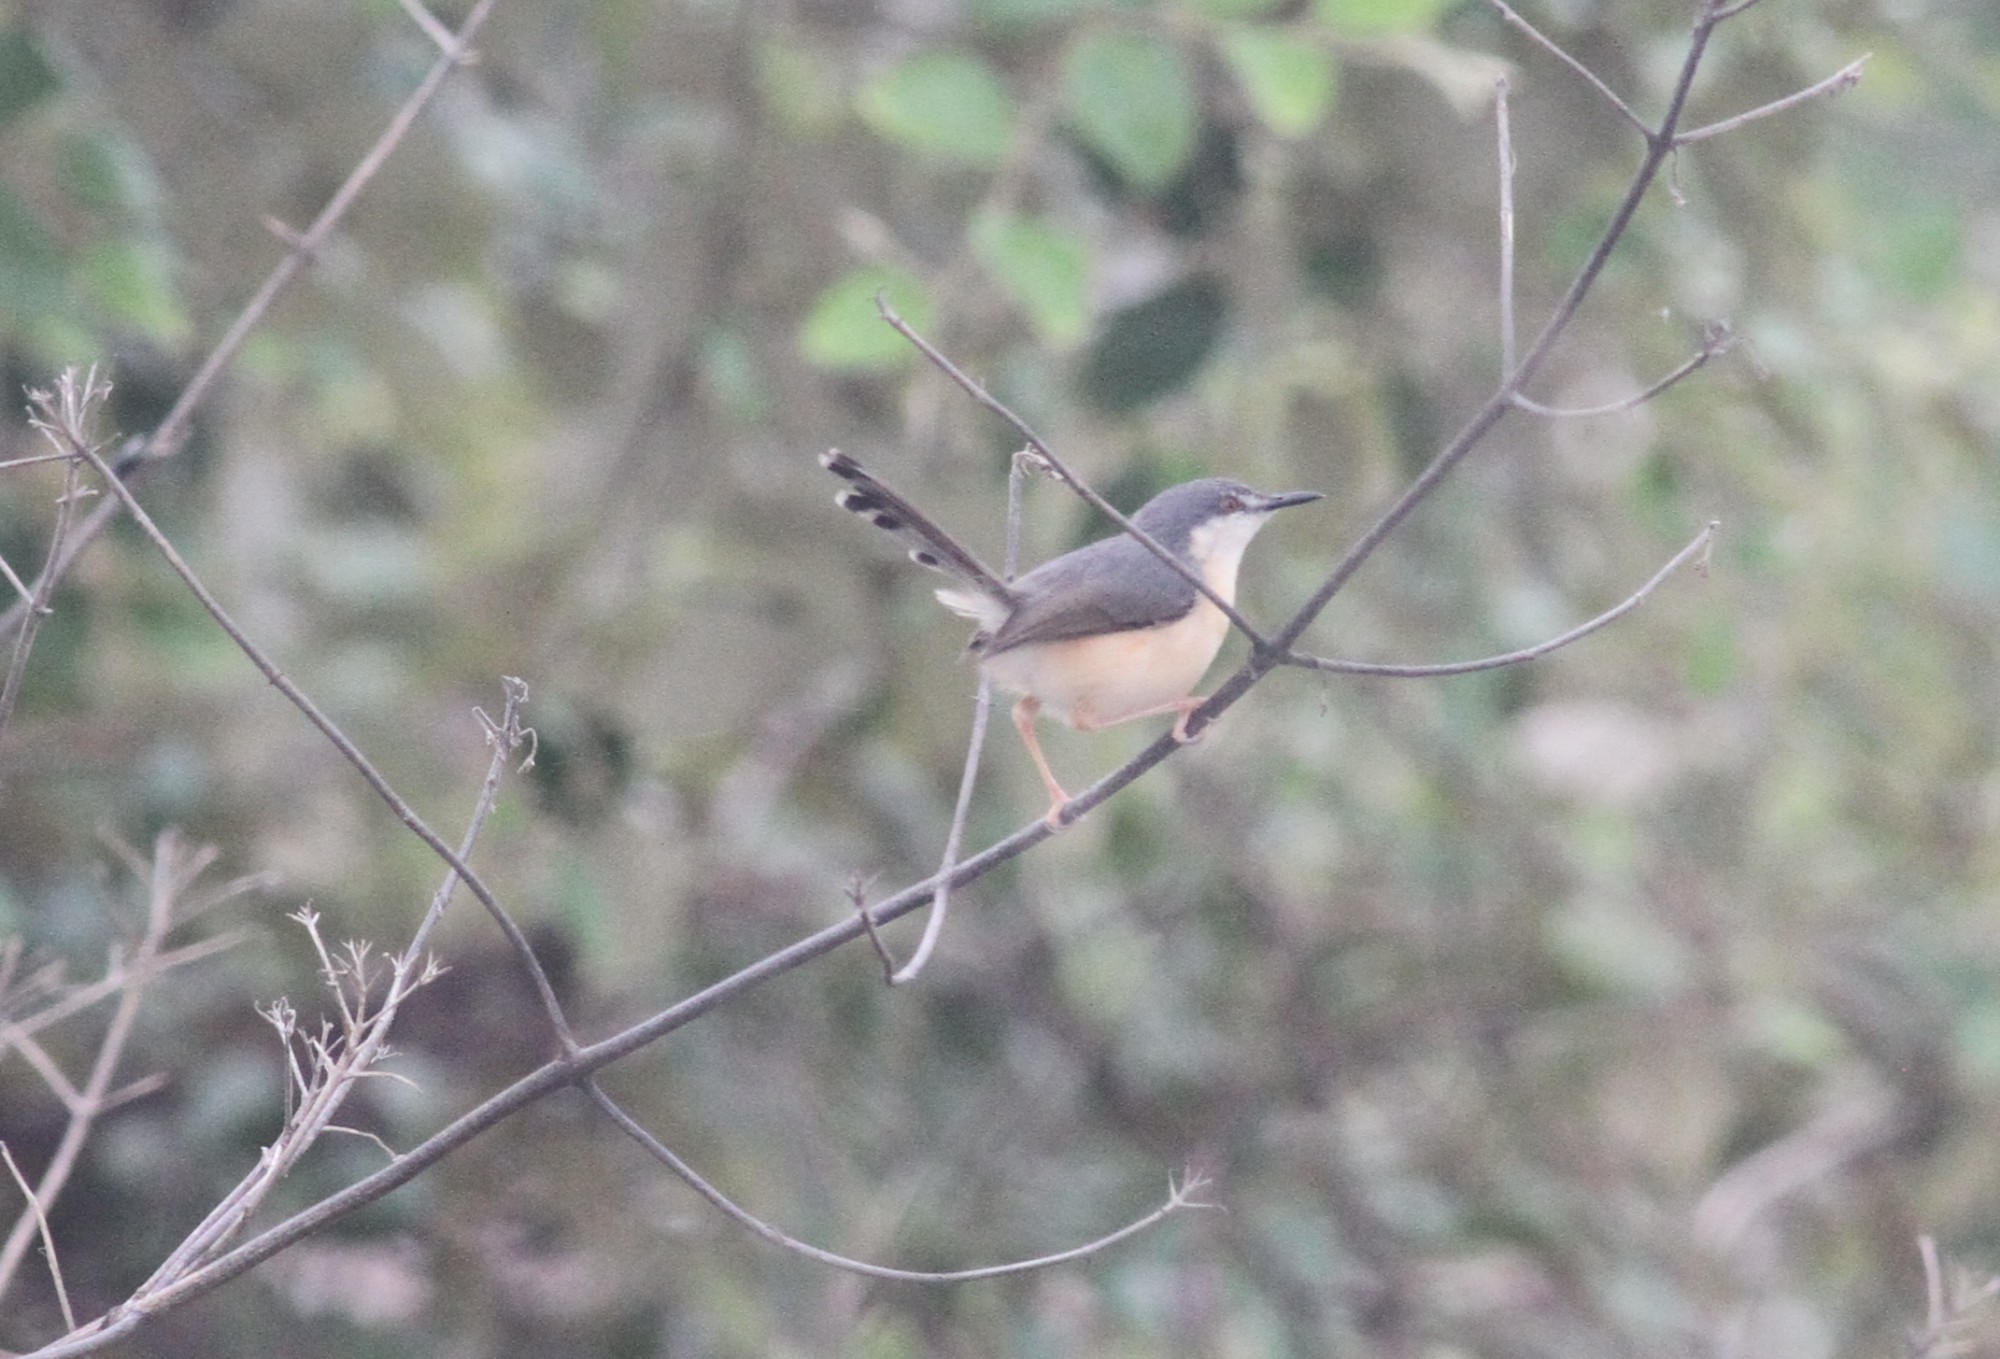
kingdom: Animalia
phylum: Chordata
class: Aves
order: Passeriformes
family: Cisticolidae
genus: Prinia
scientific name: Prinia socialis
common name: Ashy prinia
